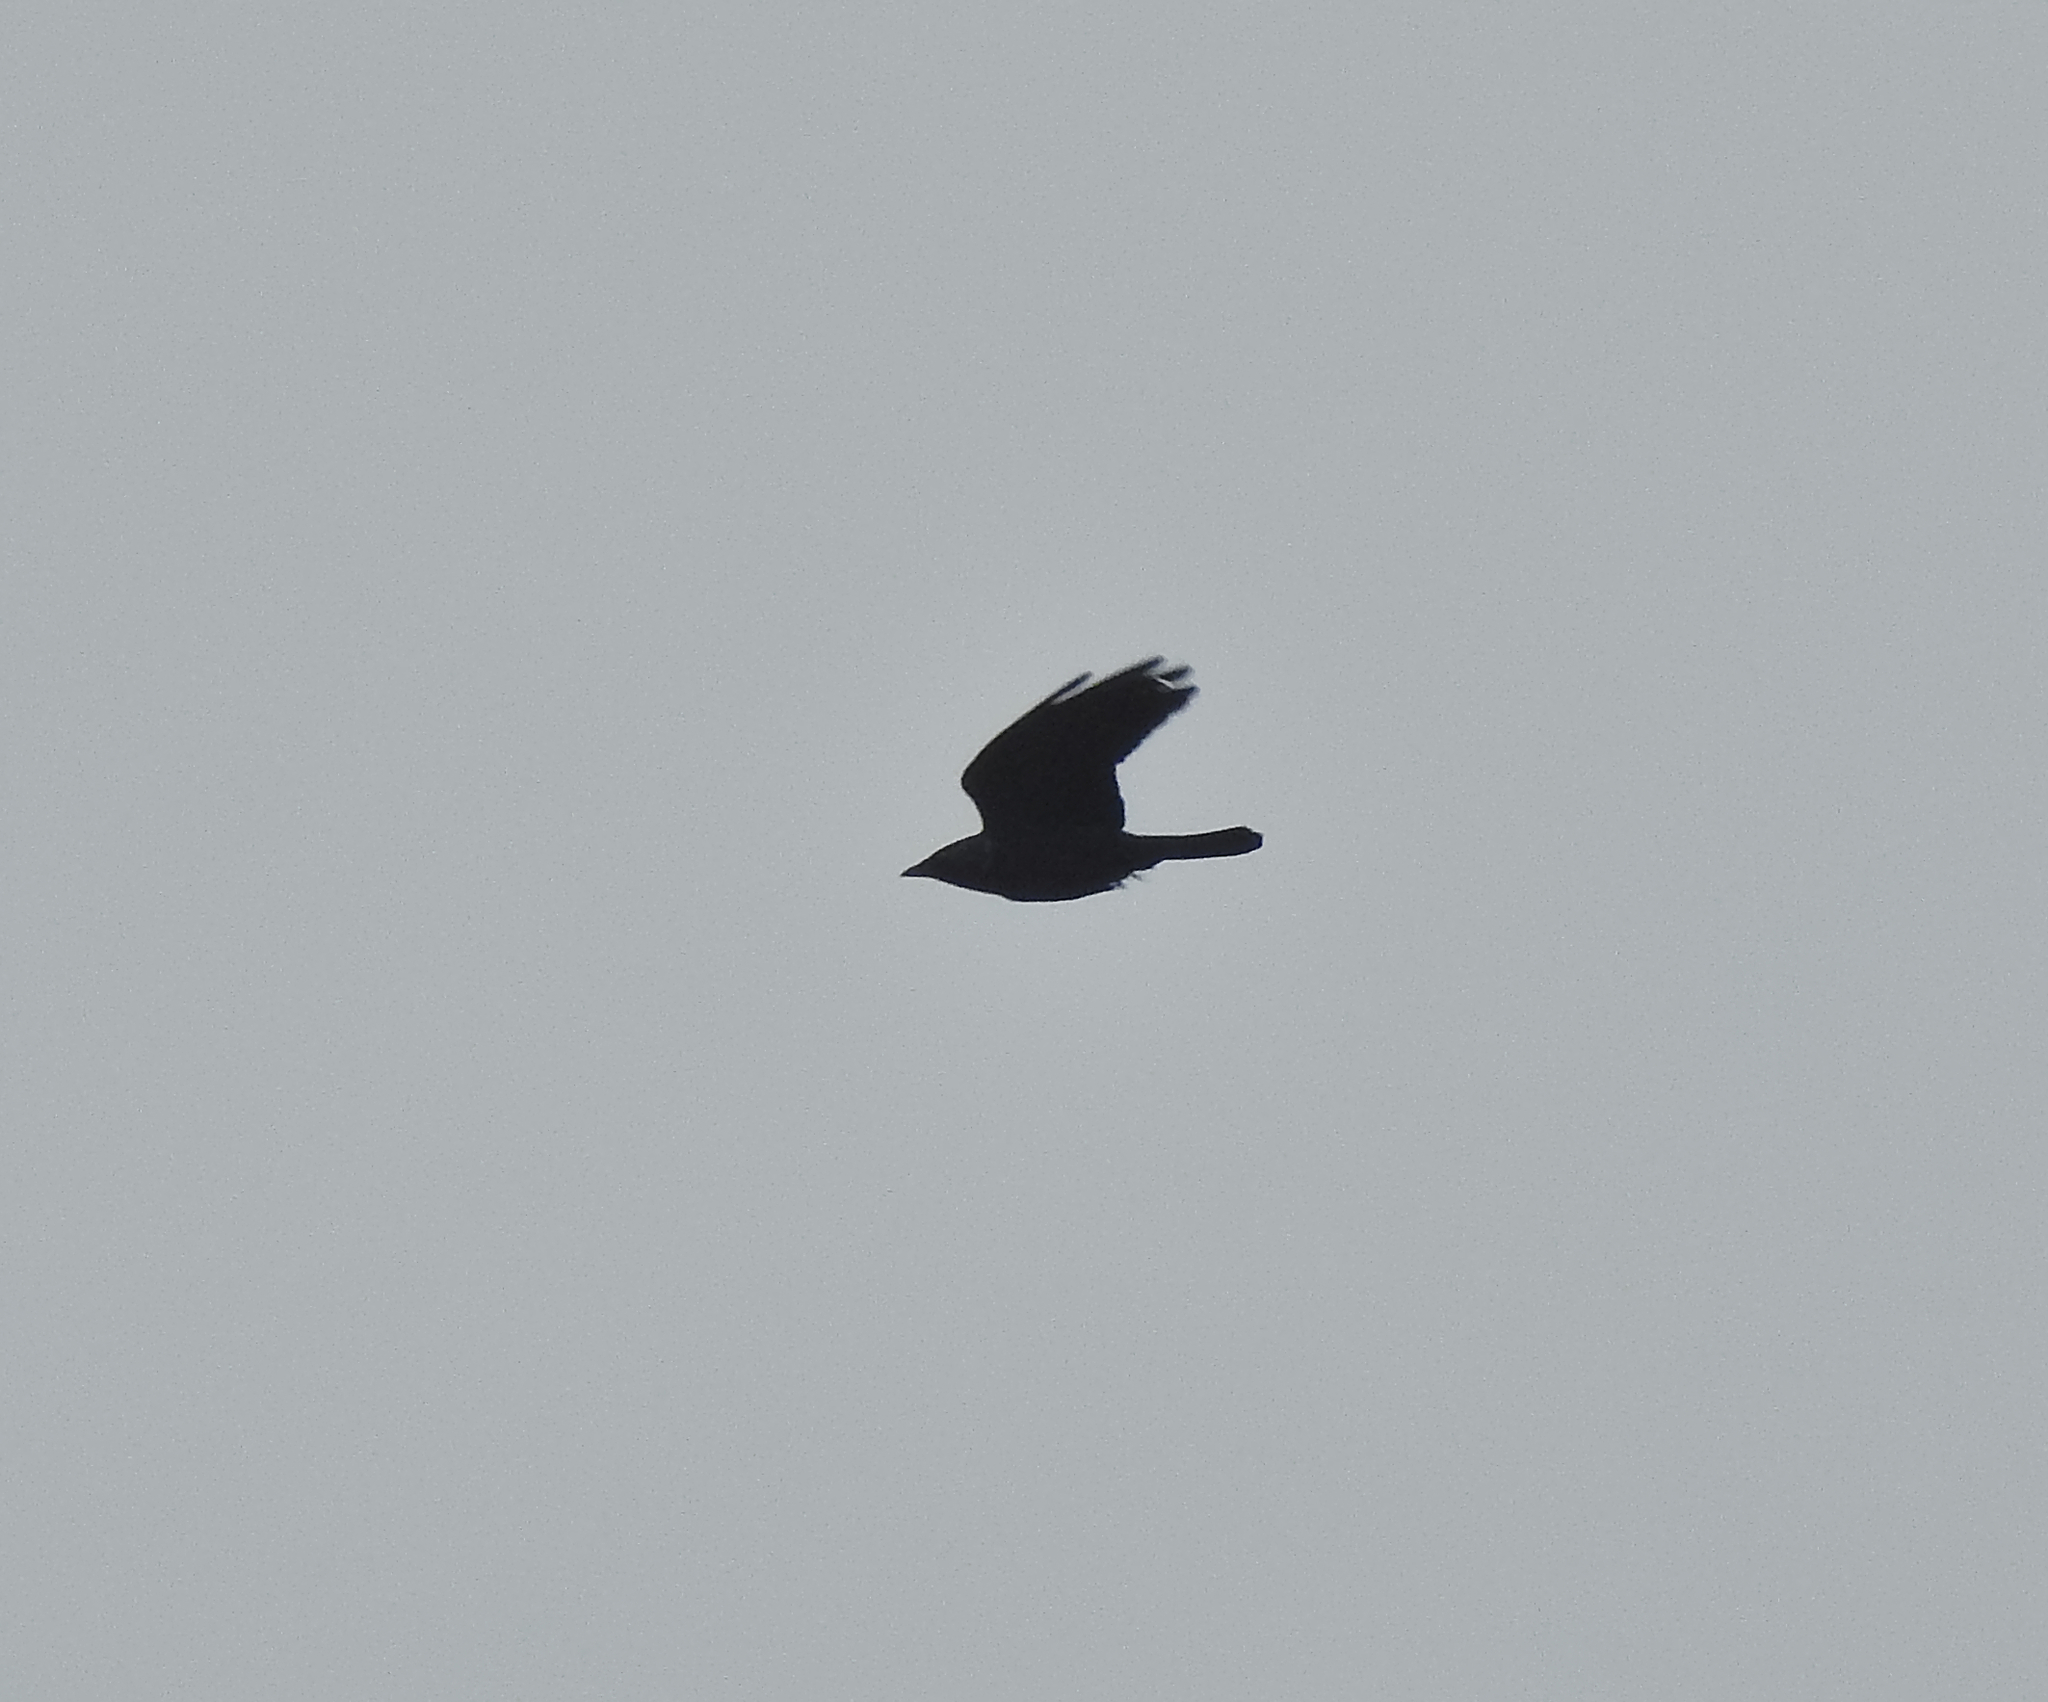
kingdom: Animalia
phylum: Chordata
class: Aves
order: Passeriformes
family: Corvidae
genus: Coloeus
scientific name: Coloeus monedula
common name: Western jackdaw
